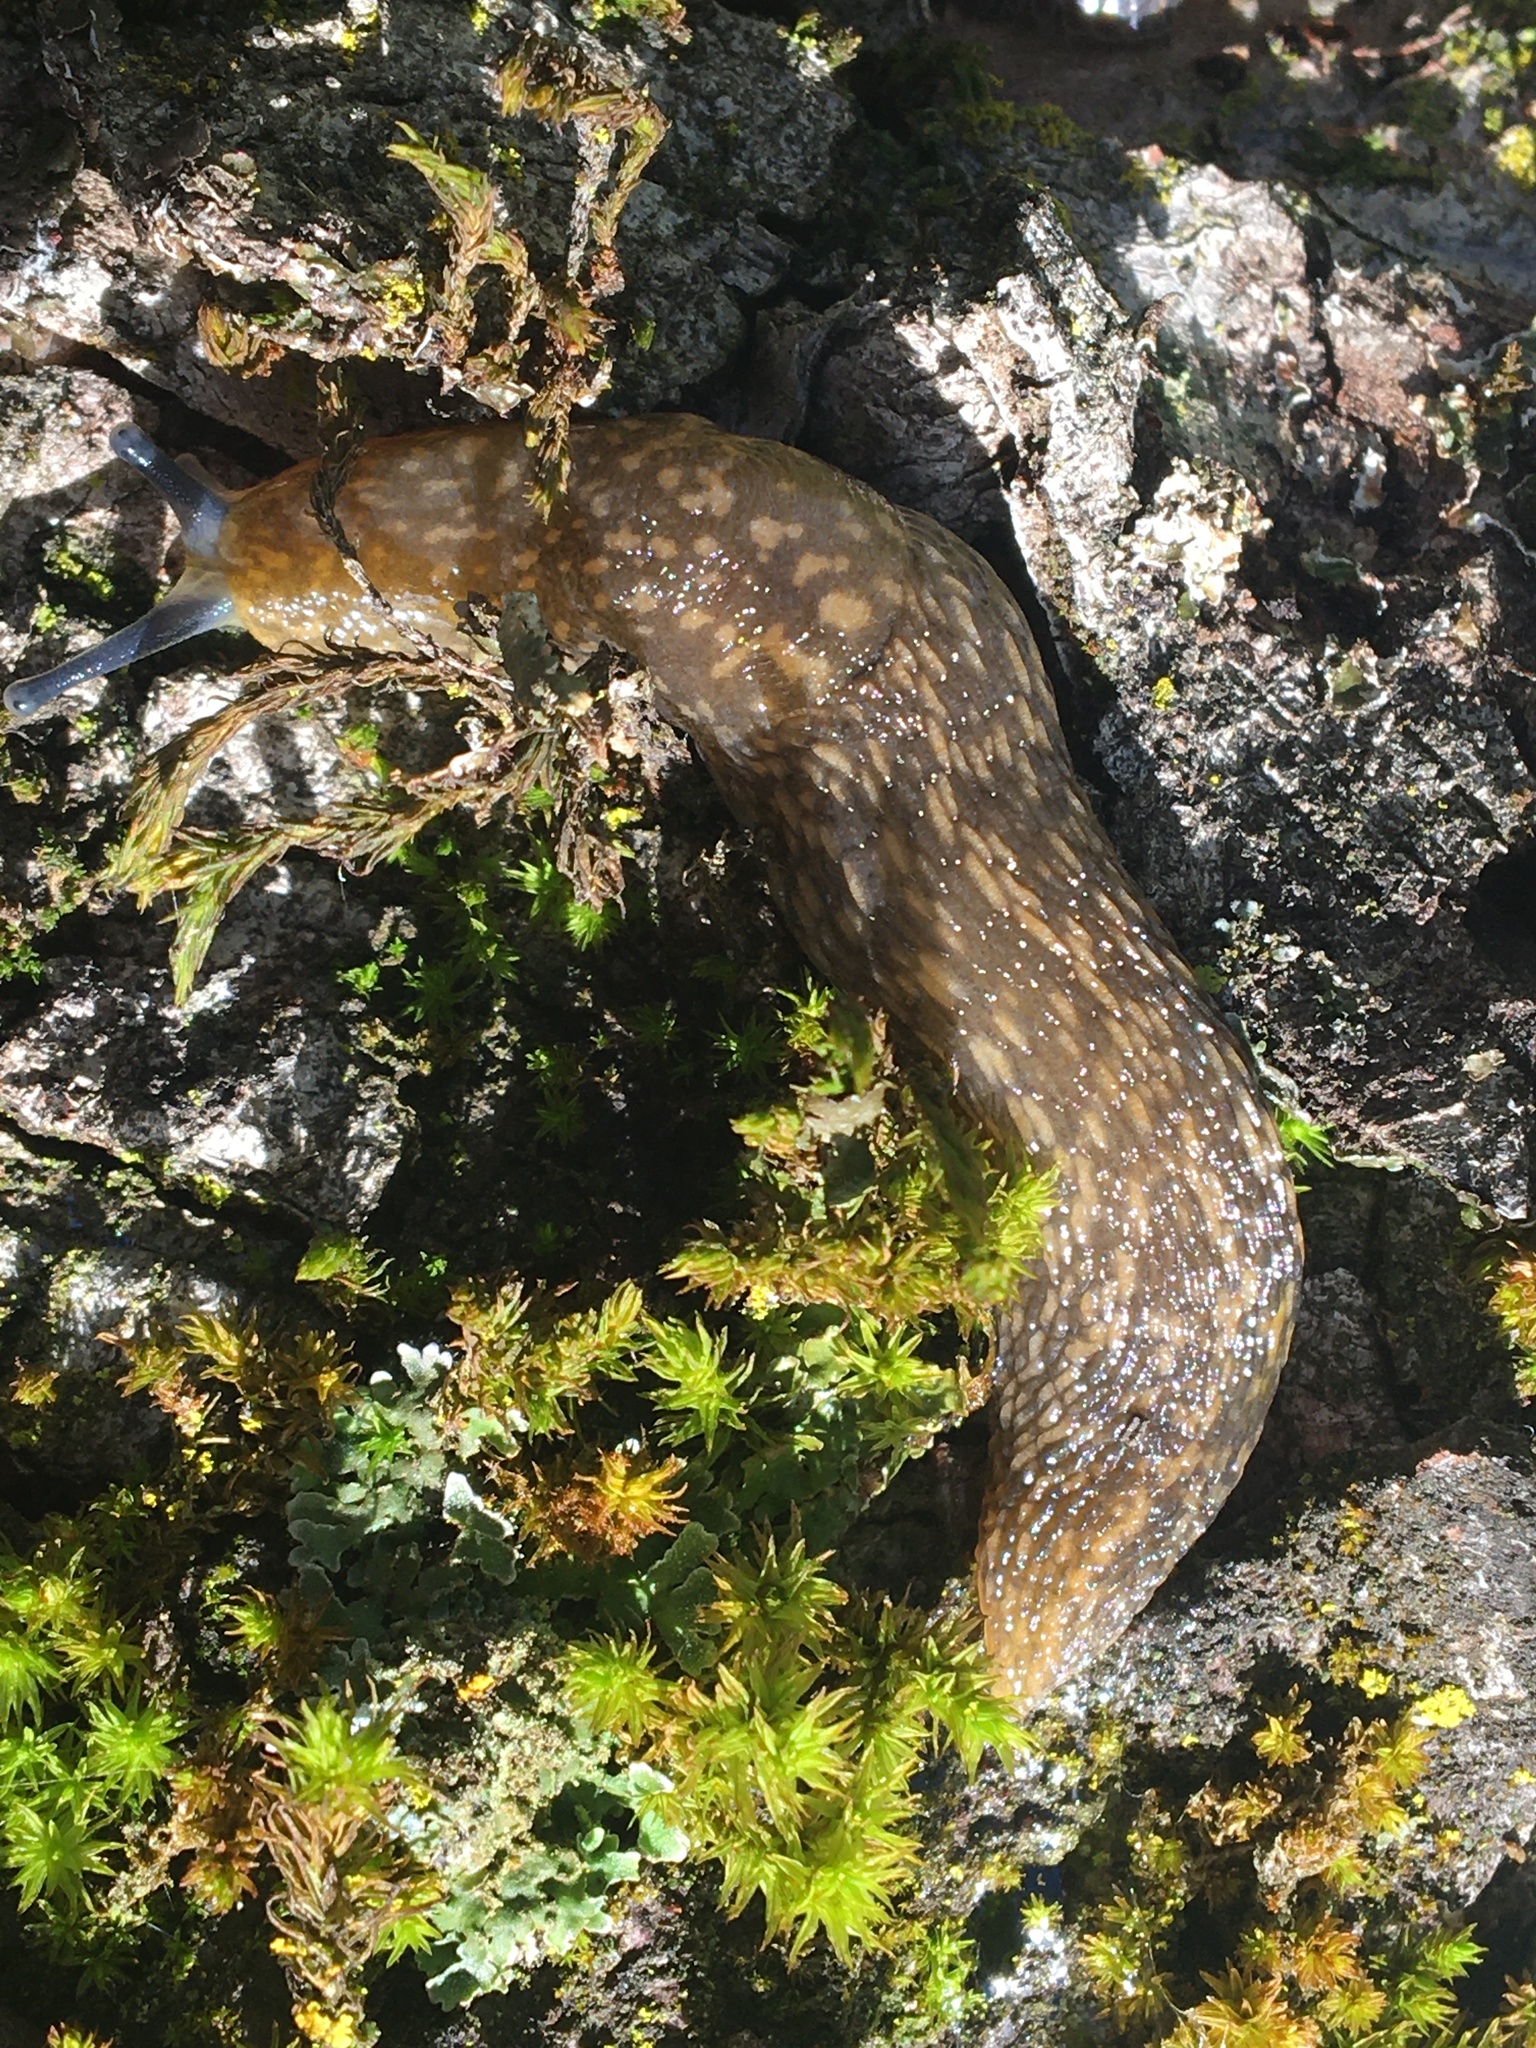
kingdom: Animalia
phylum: Mollusca
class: Gastropoda
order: Stylommatophora
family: Limacidae
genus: Limacus
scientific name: Limacus flavus
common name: Yellow gardenslug
